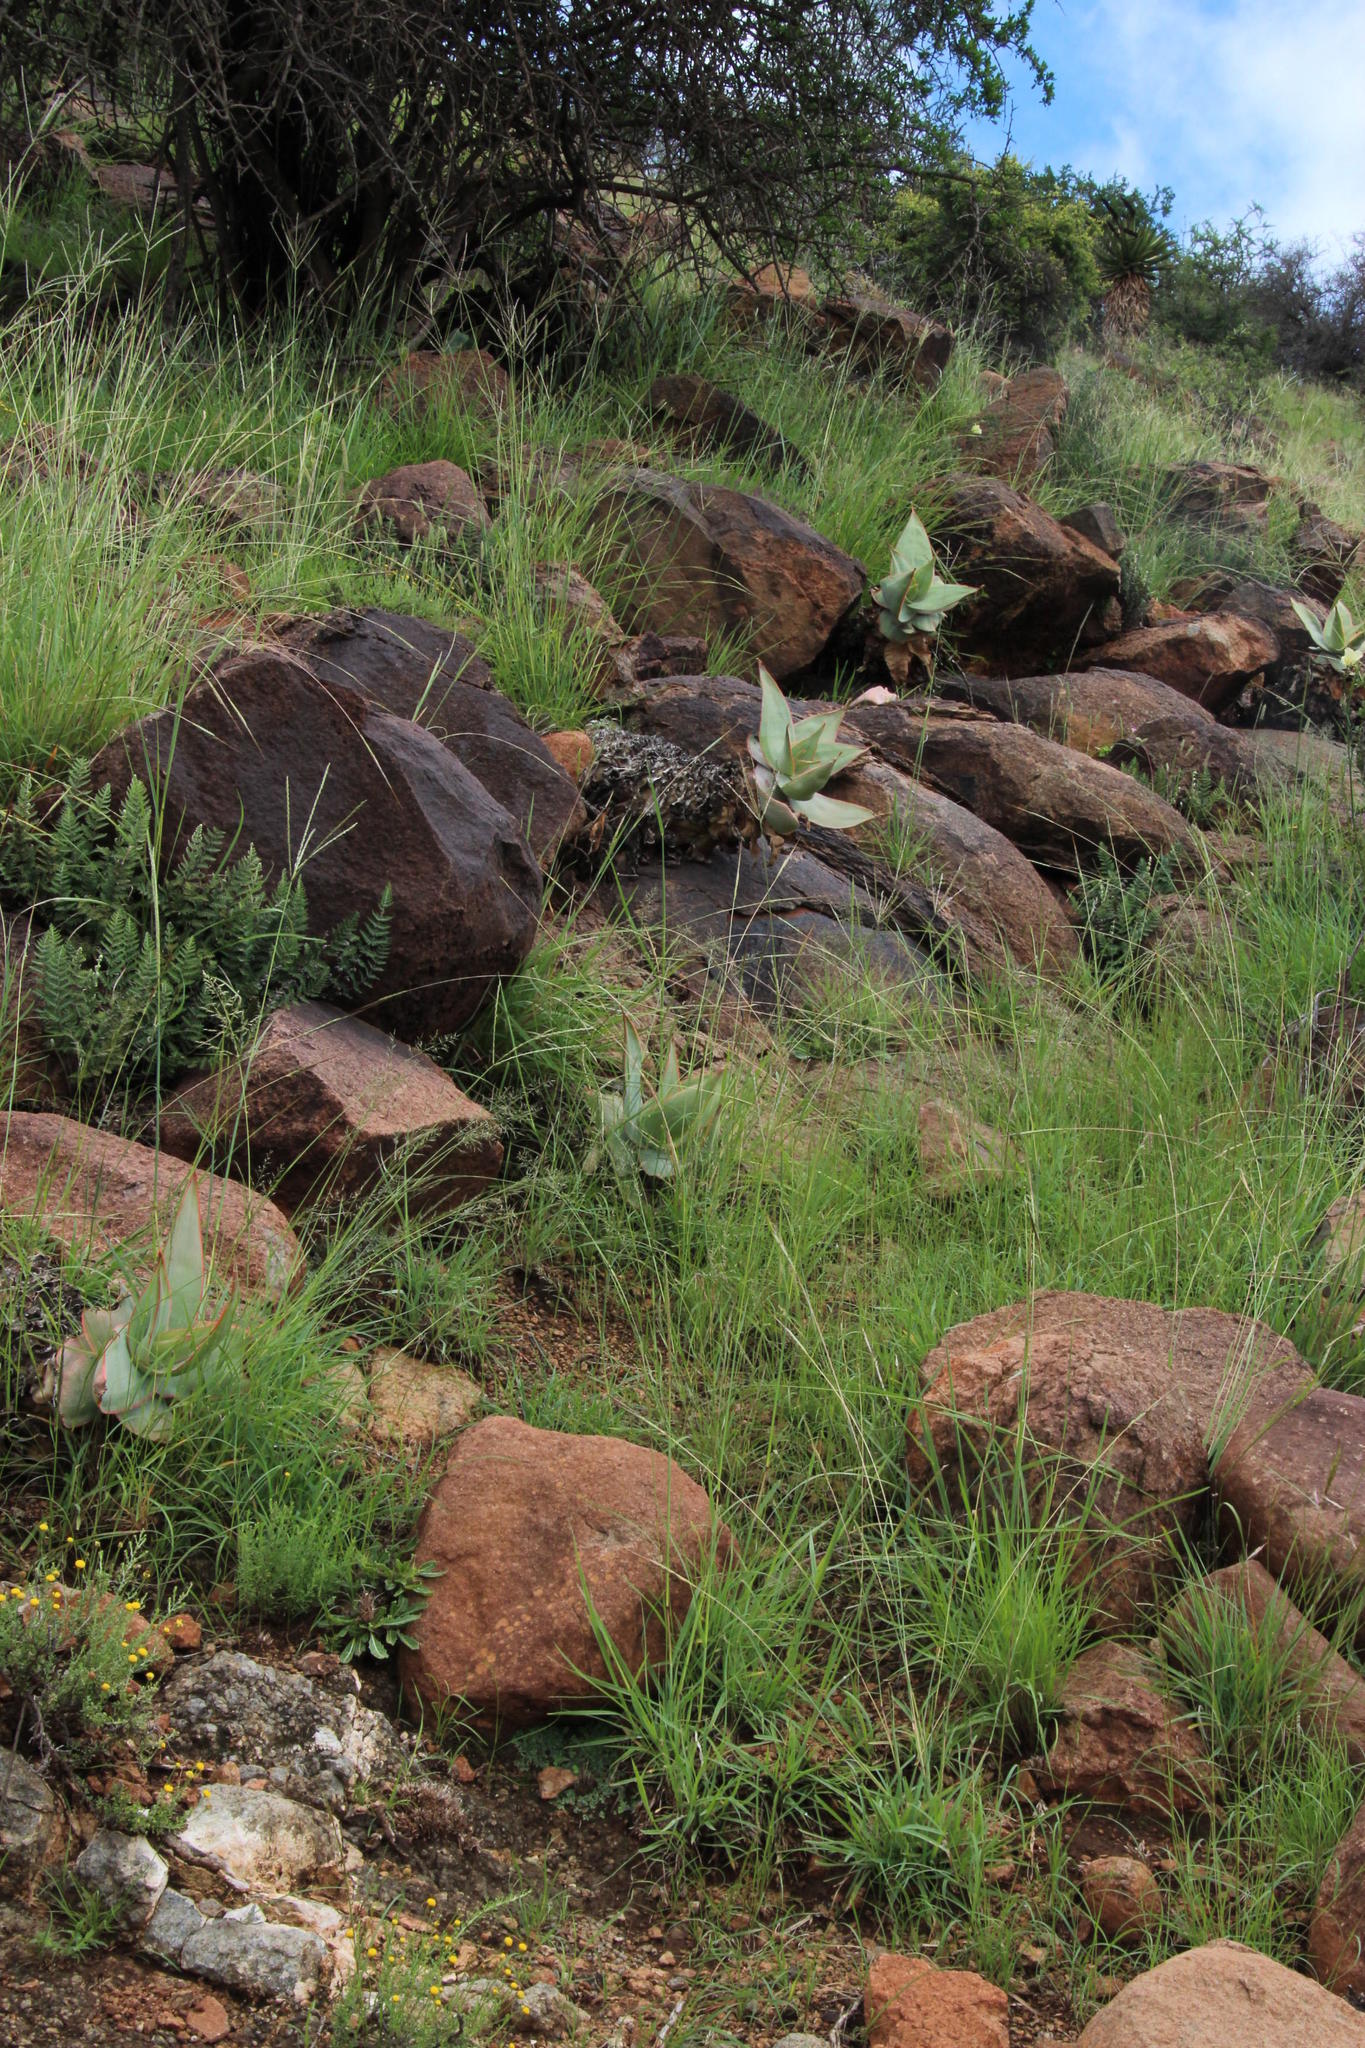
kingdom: Plantae
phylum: Tracheophyta
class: Liliopsida
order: Asparagales
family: Asphodelaceae
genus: Aloe
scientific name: Aloe striata
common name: Coral aloe
